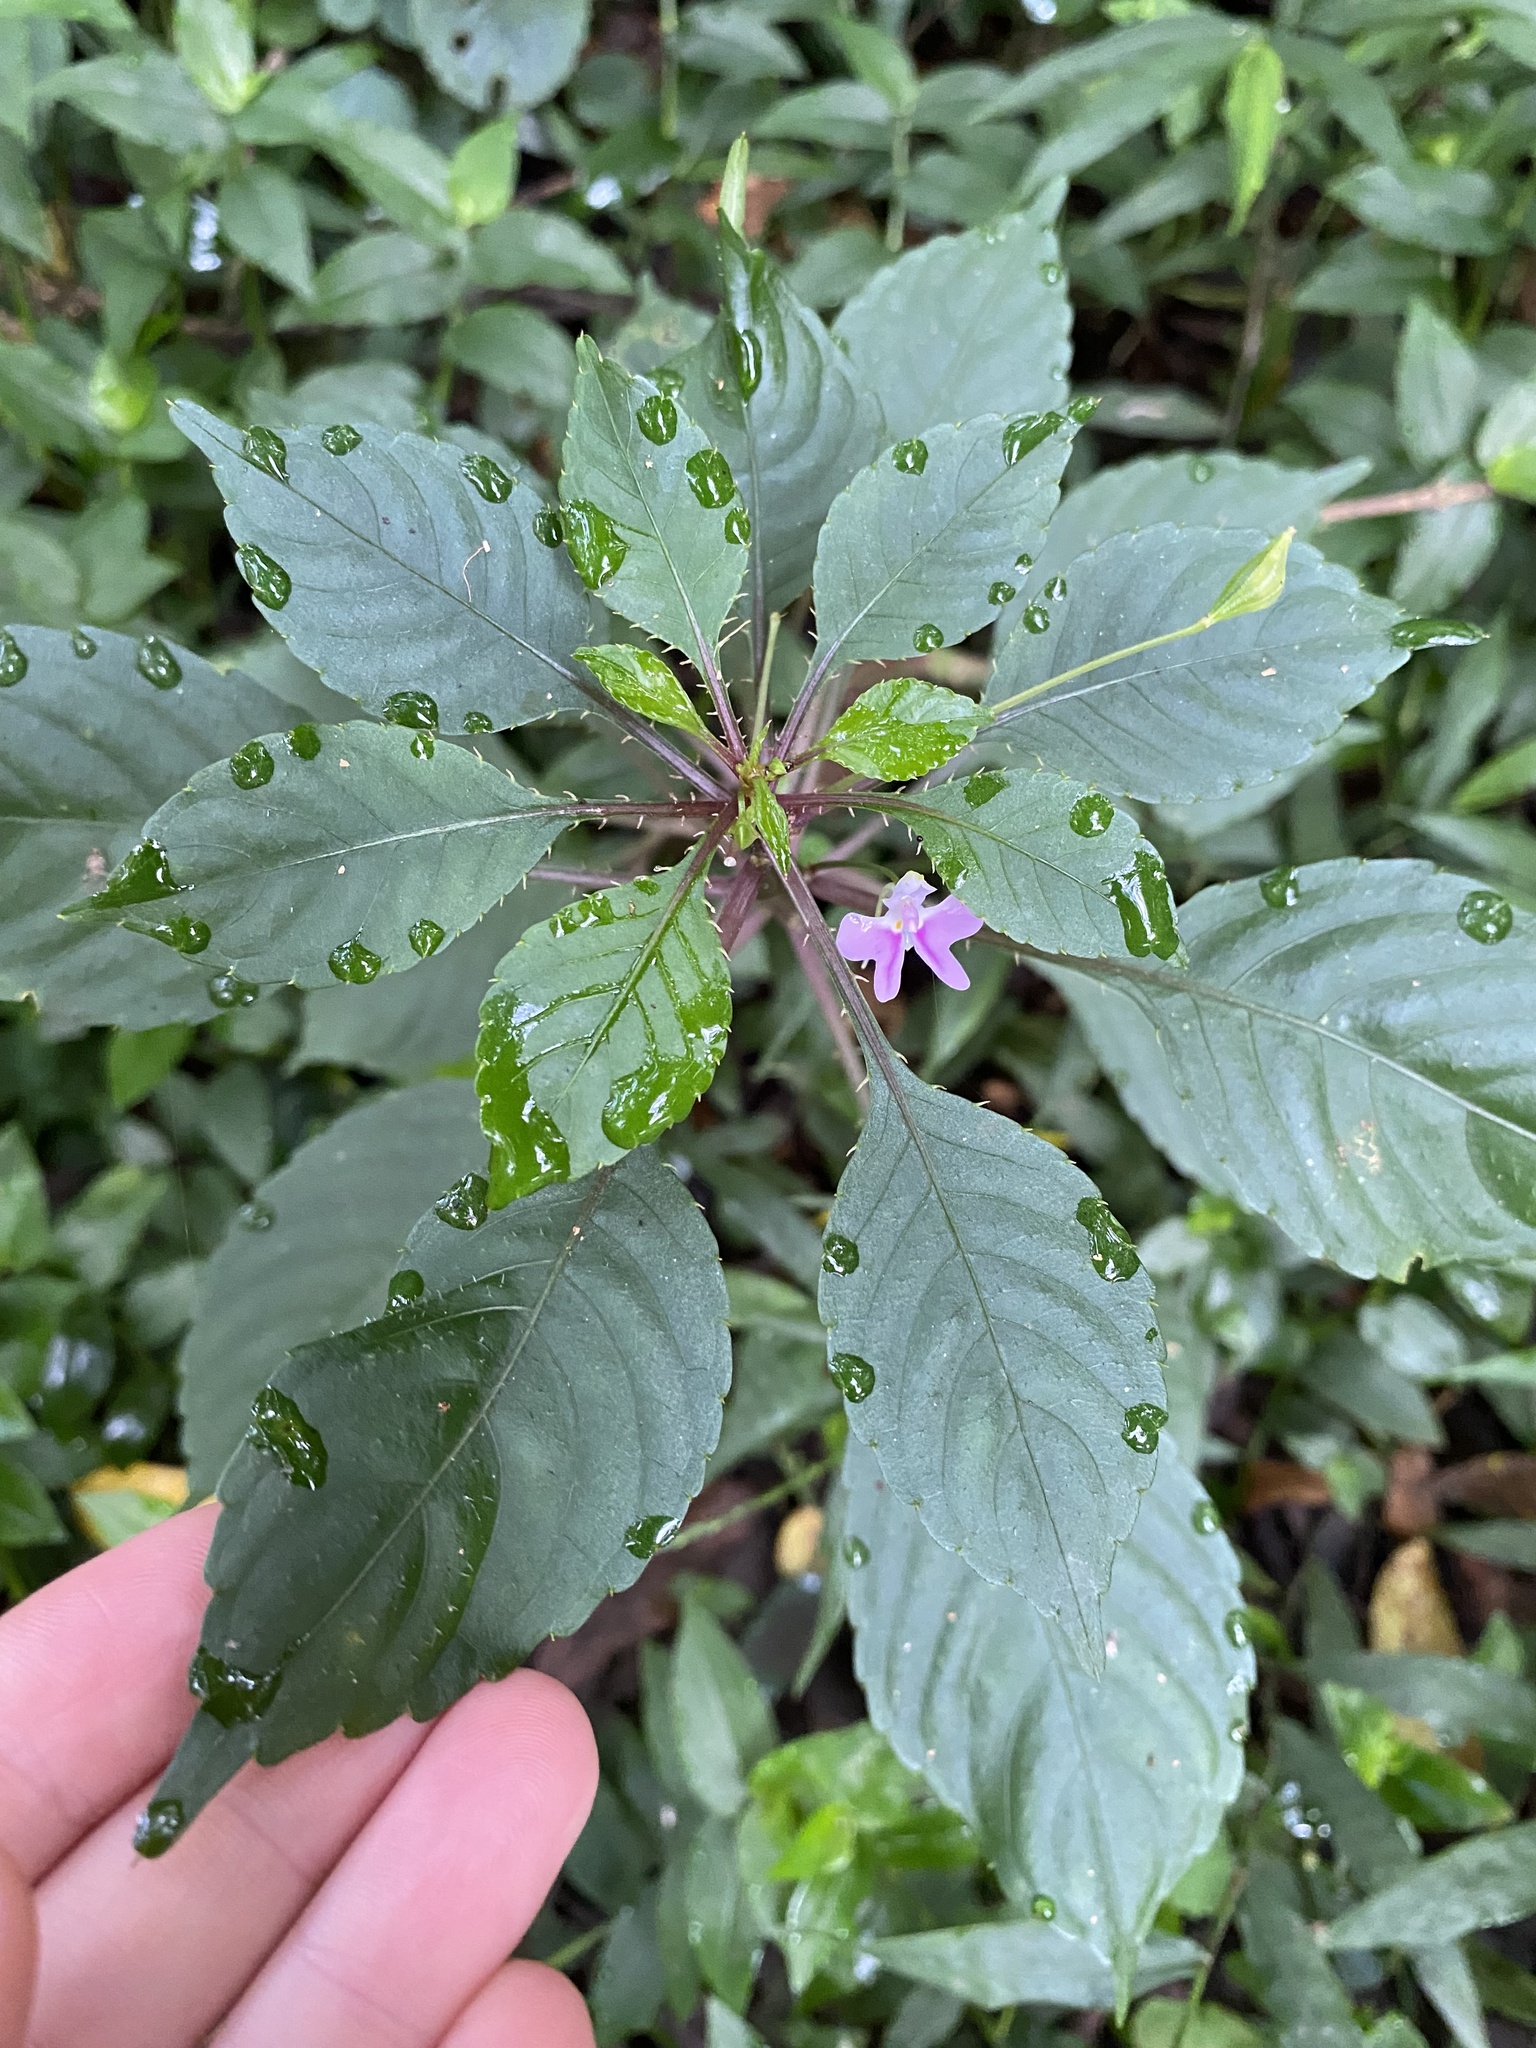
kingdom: Plantae
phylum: Tracheophyta
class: Magnoliopsida
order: Ericales
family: Balsaminaceae
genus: Impatiens
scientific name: Impatiens hochstetteri
